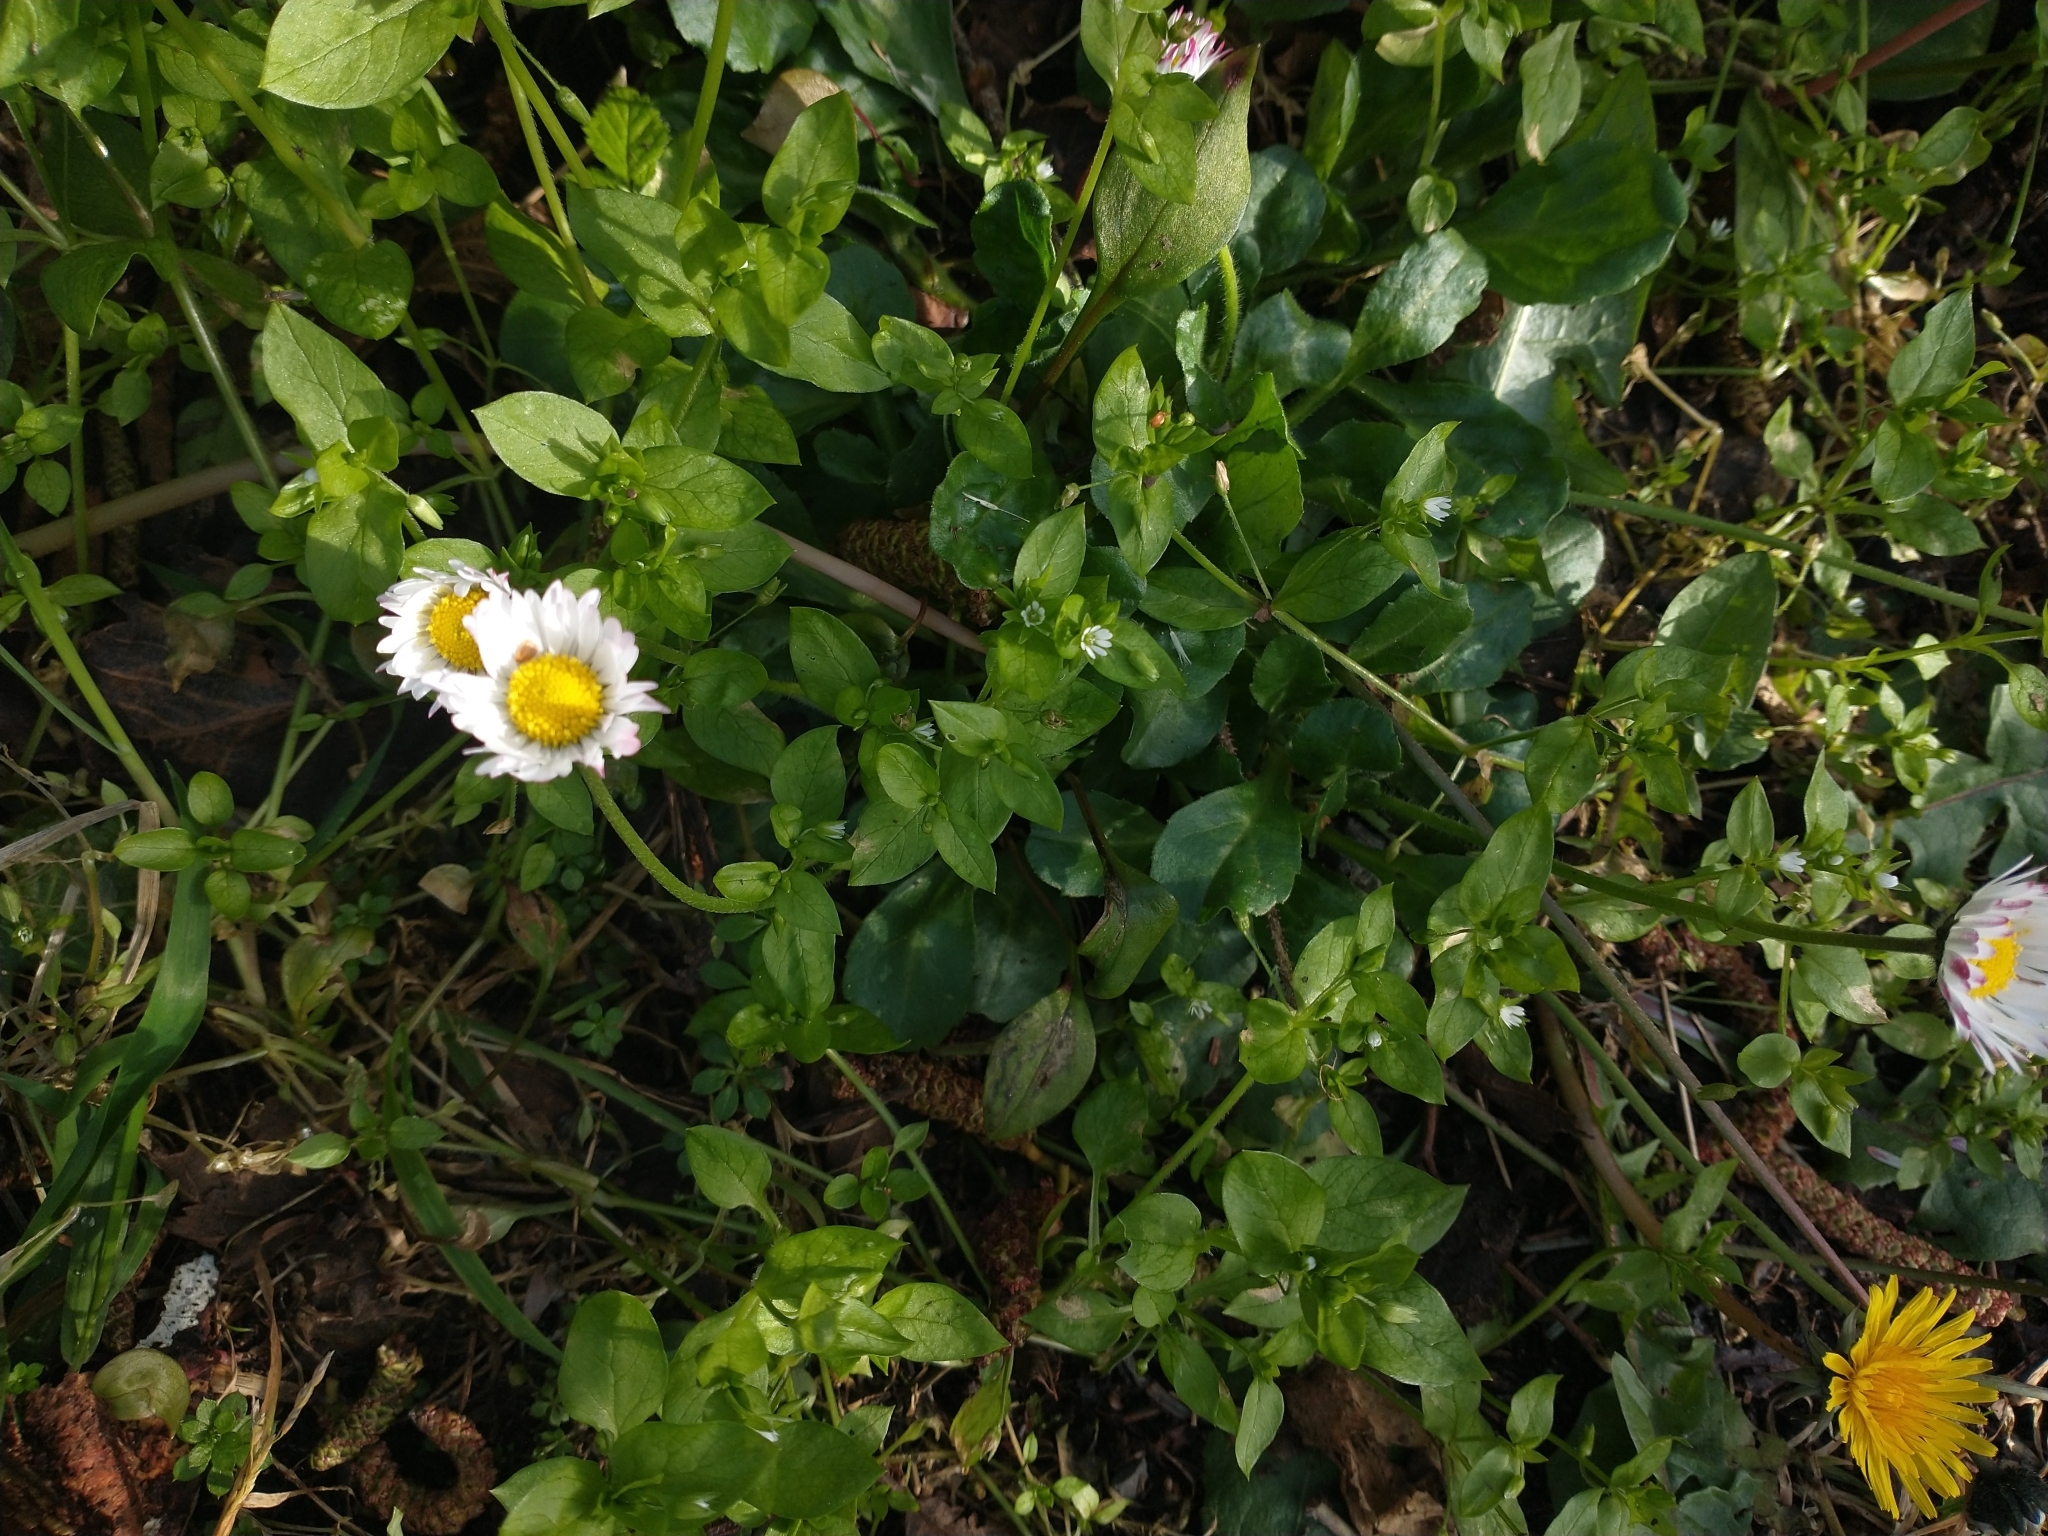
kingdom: Plantae
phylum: Tracheophyta
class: Magnoliopsida
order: Asterales
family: Asteraceae
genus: Bellis
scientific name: Bellis perennis
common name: Lawndaisy
